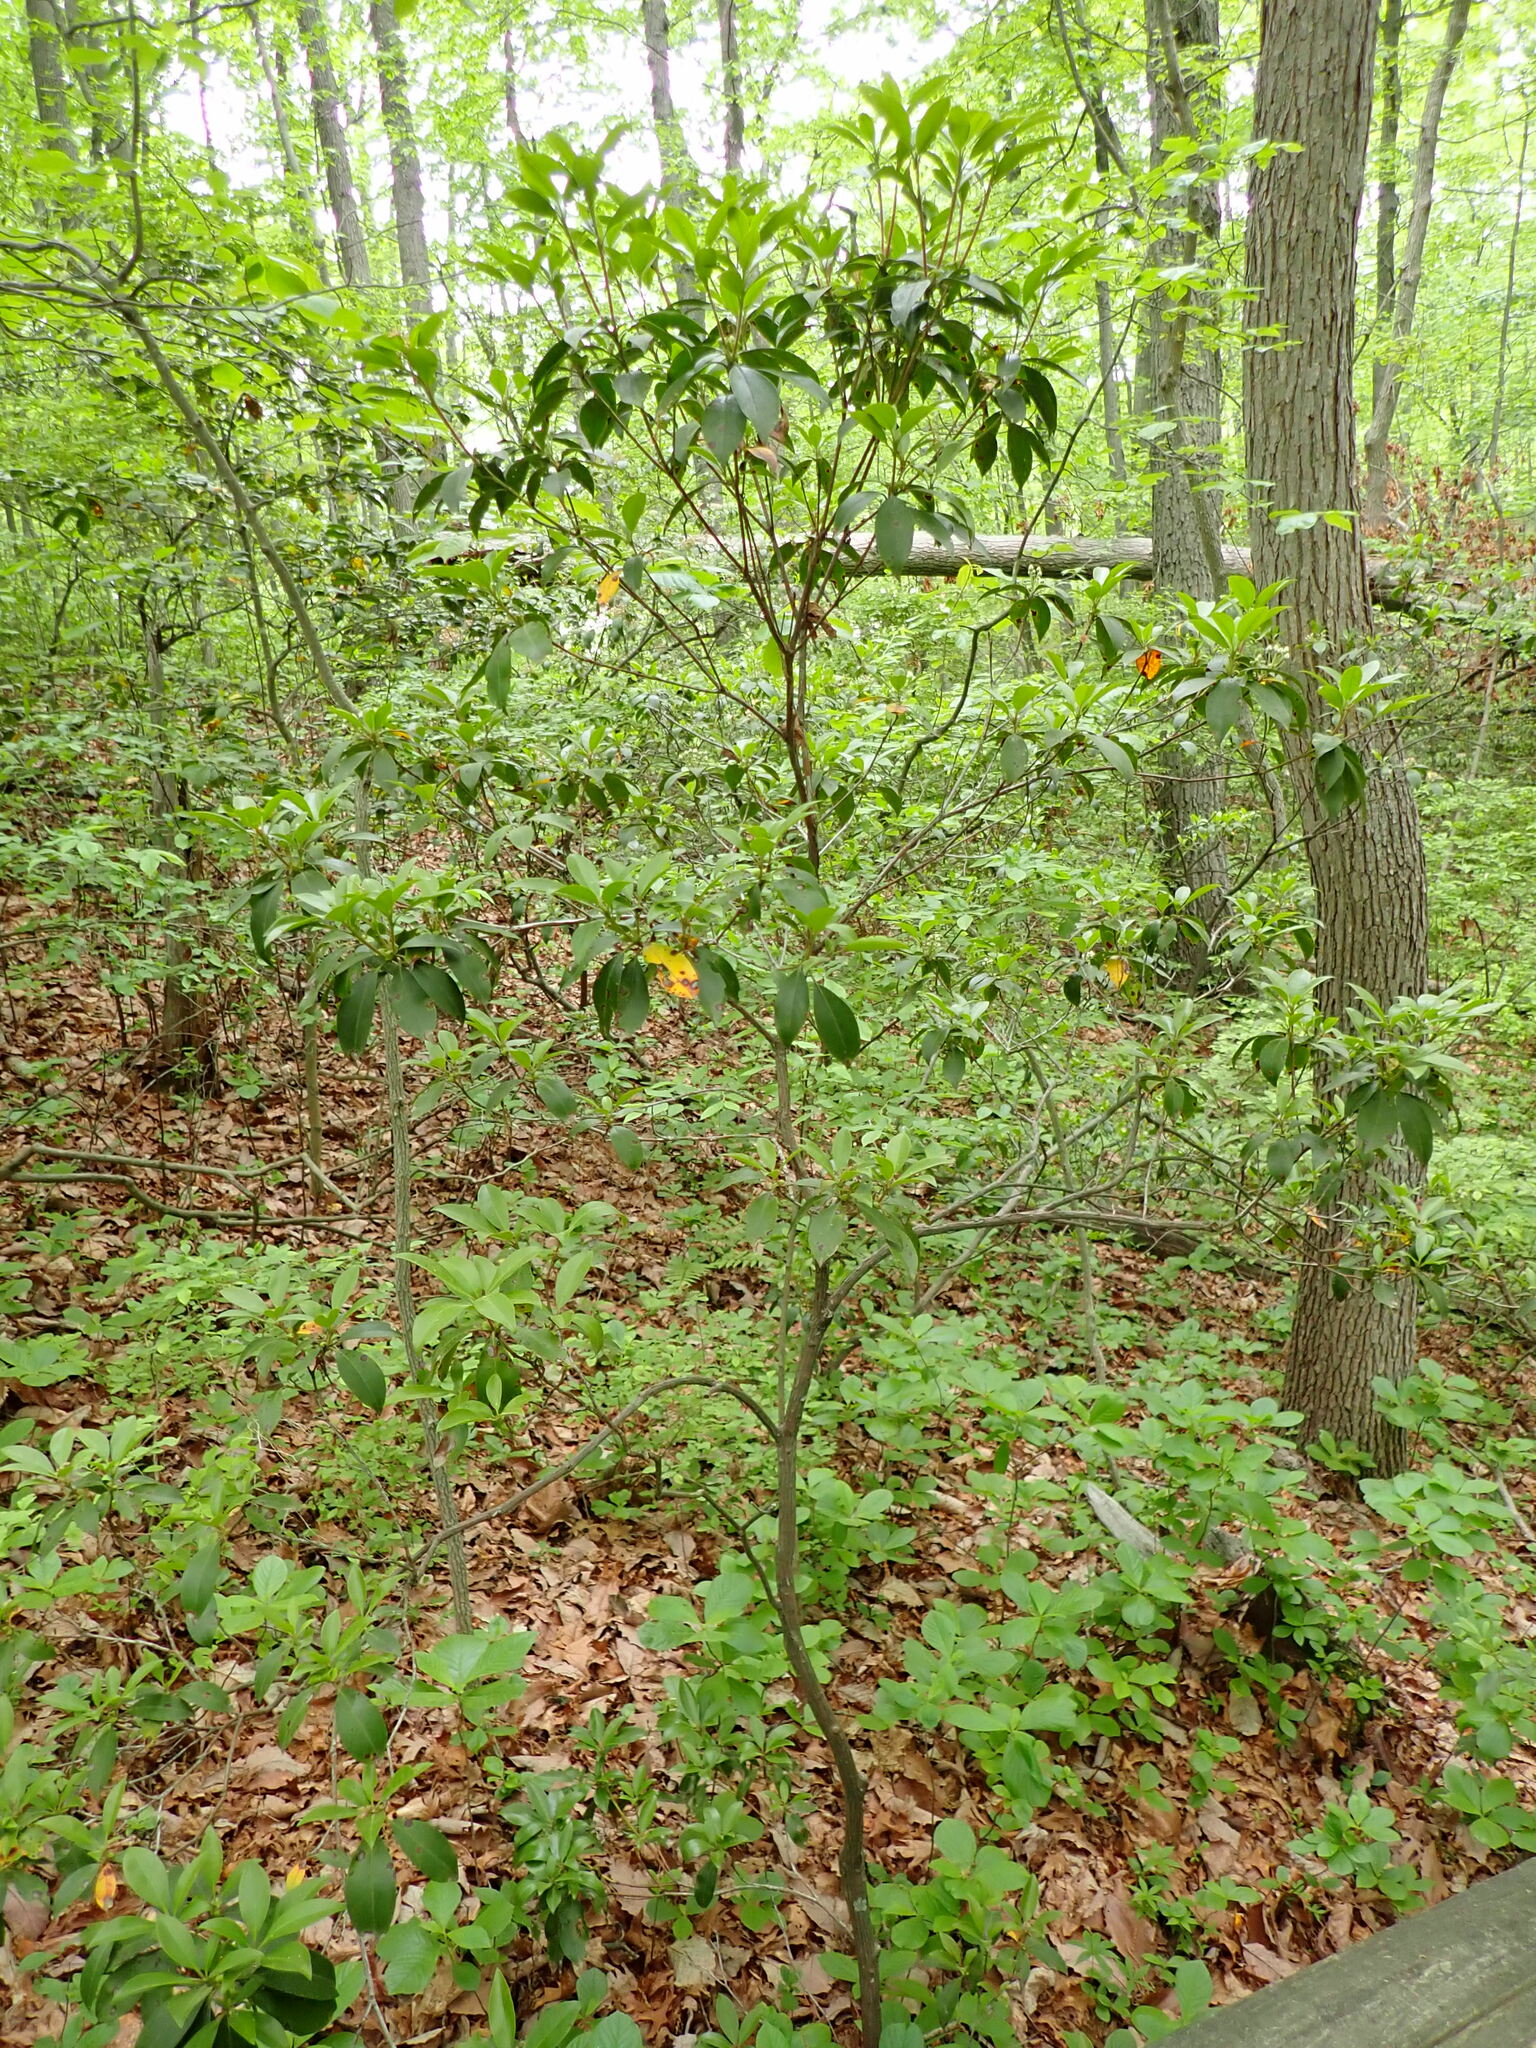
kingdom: Plantae
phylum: Tracheophyta
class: Magnoliopsida
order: Ericales
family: Ericaceae
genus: Kalmia
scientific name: Kalmia latifolia
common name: Mountain-laurel
